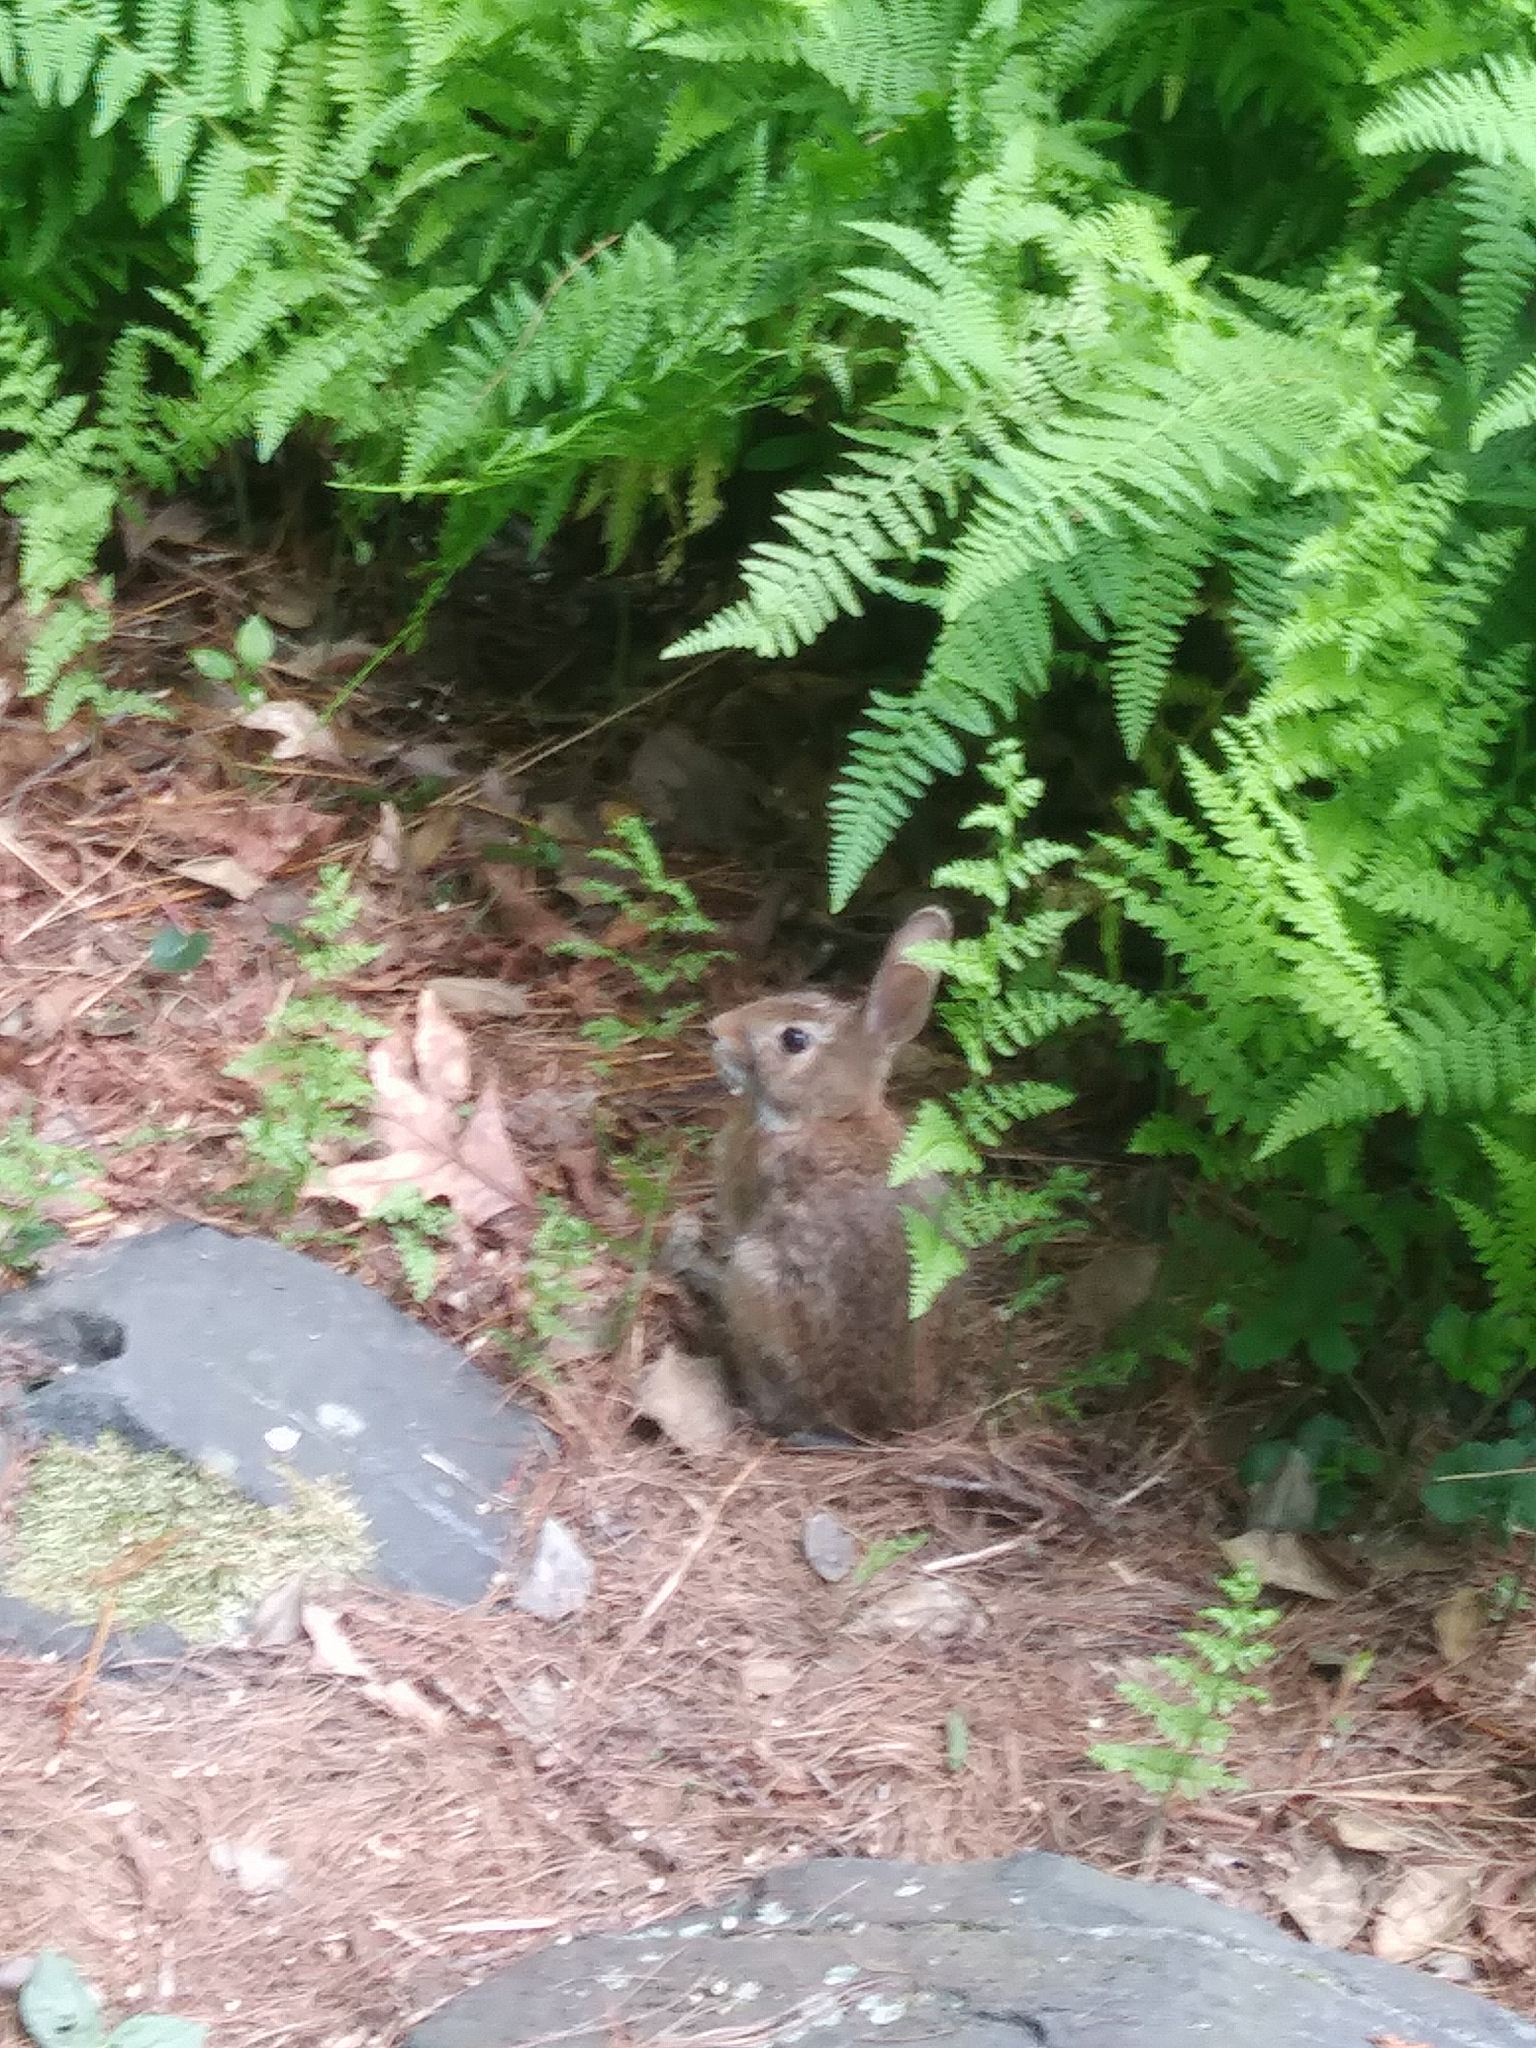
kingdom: Animalia
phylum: Chordata
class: Mammalia
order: Lagomorpha
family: Leporidae
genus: Sylvilagus
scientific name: Sylvilagus floridanus
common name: Eastern cottontail
